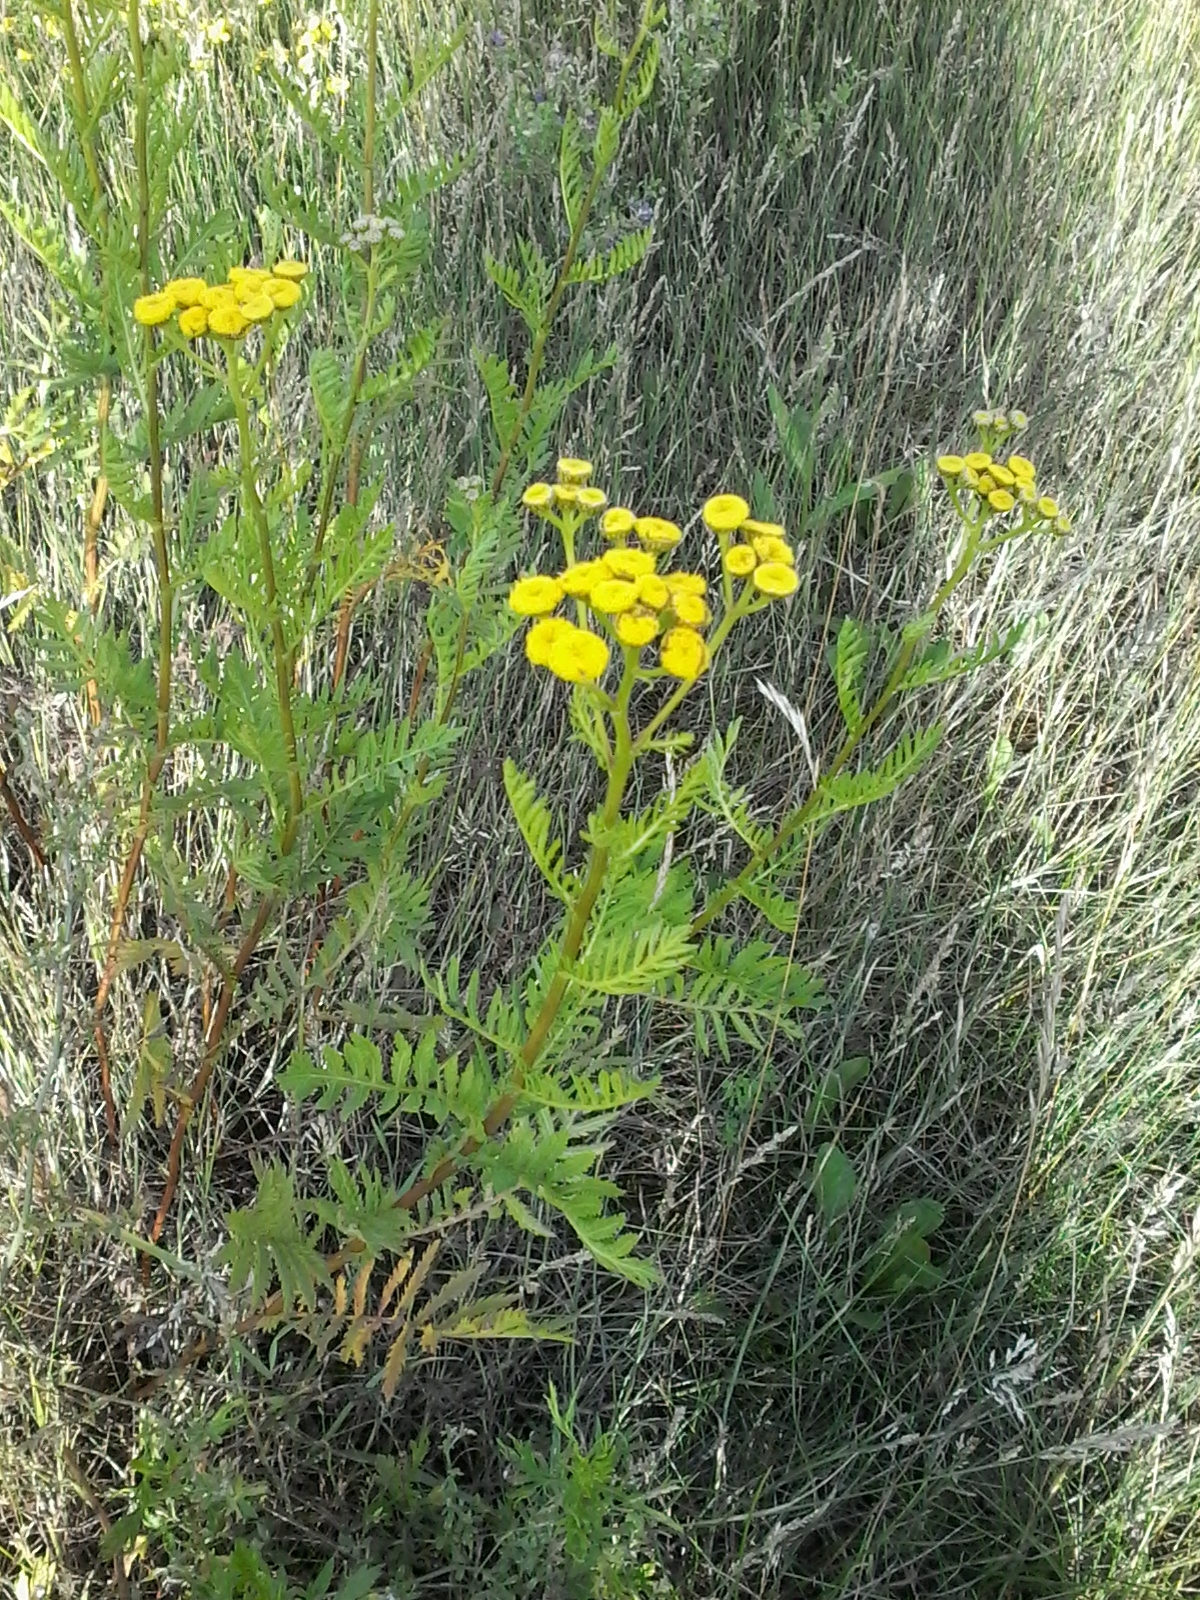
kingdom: Plantae
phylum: Tracheophyta
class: Magnoliopsida
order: Asterales
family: Asteraceae
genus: Tanacetum
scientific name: Tanacetum vulgare
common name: Common tansy
